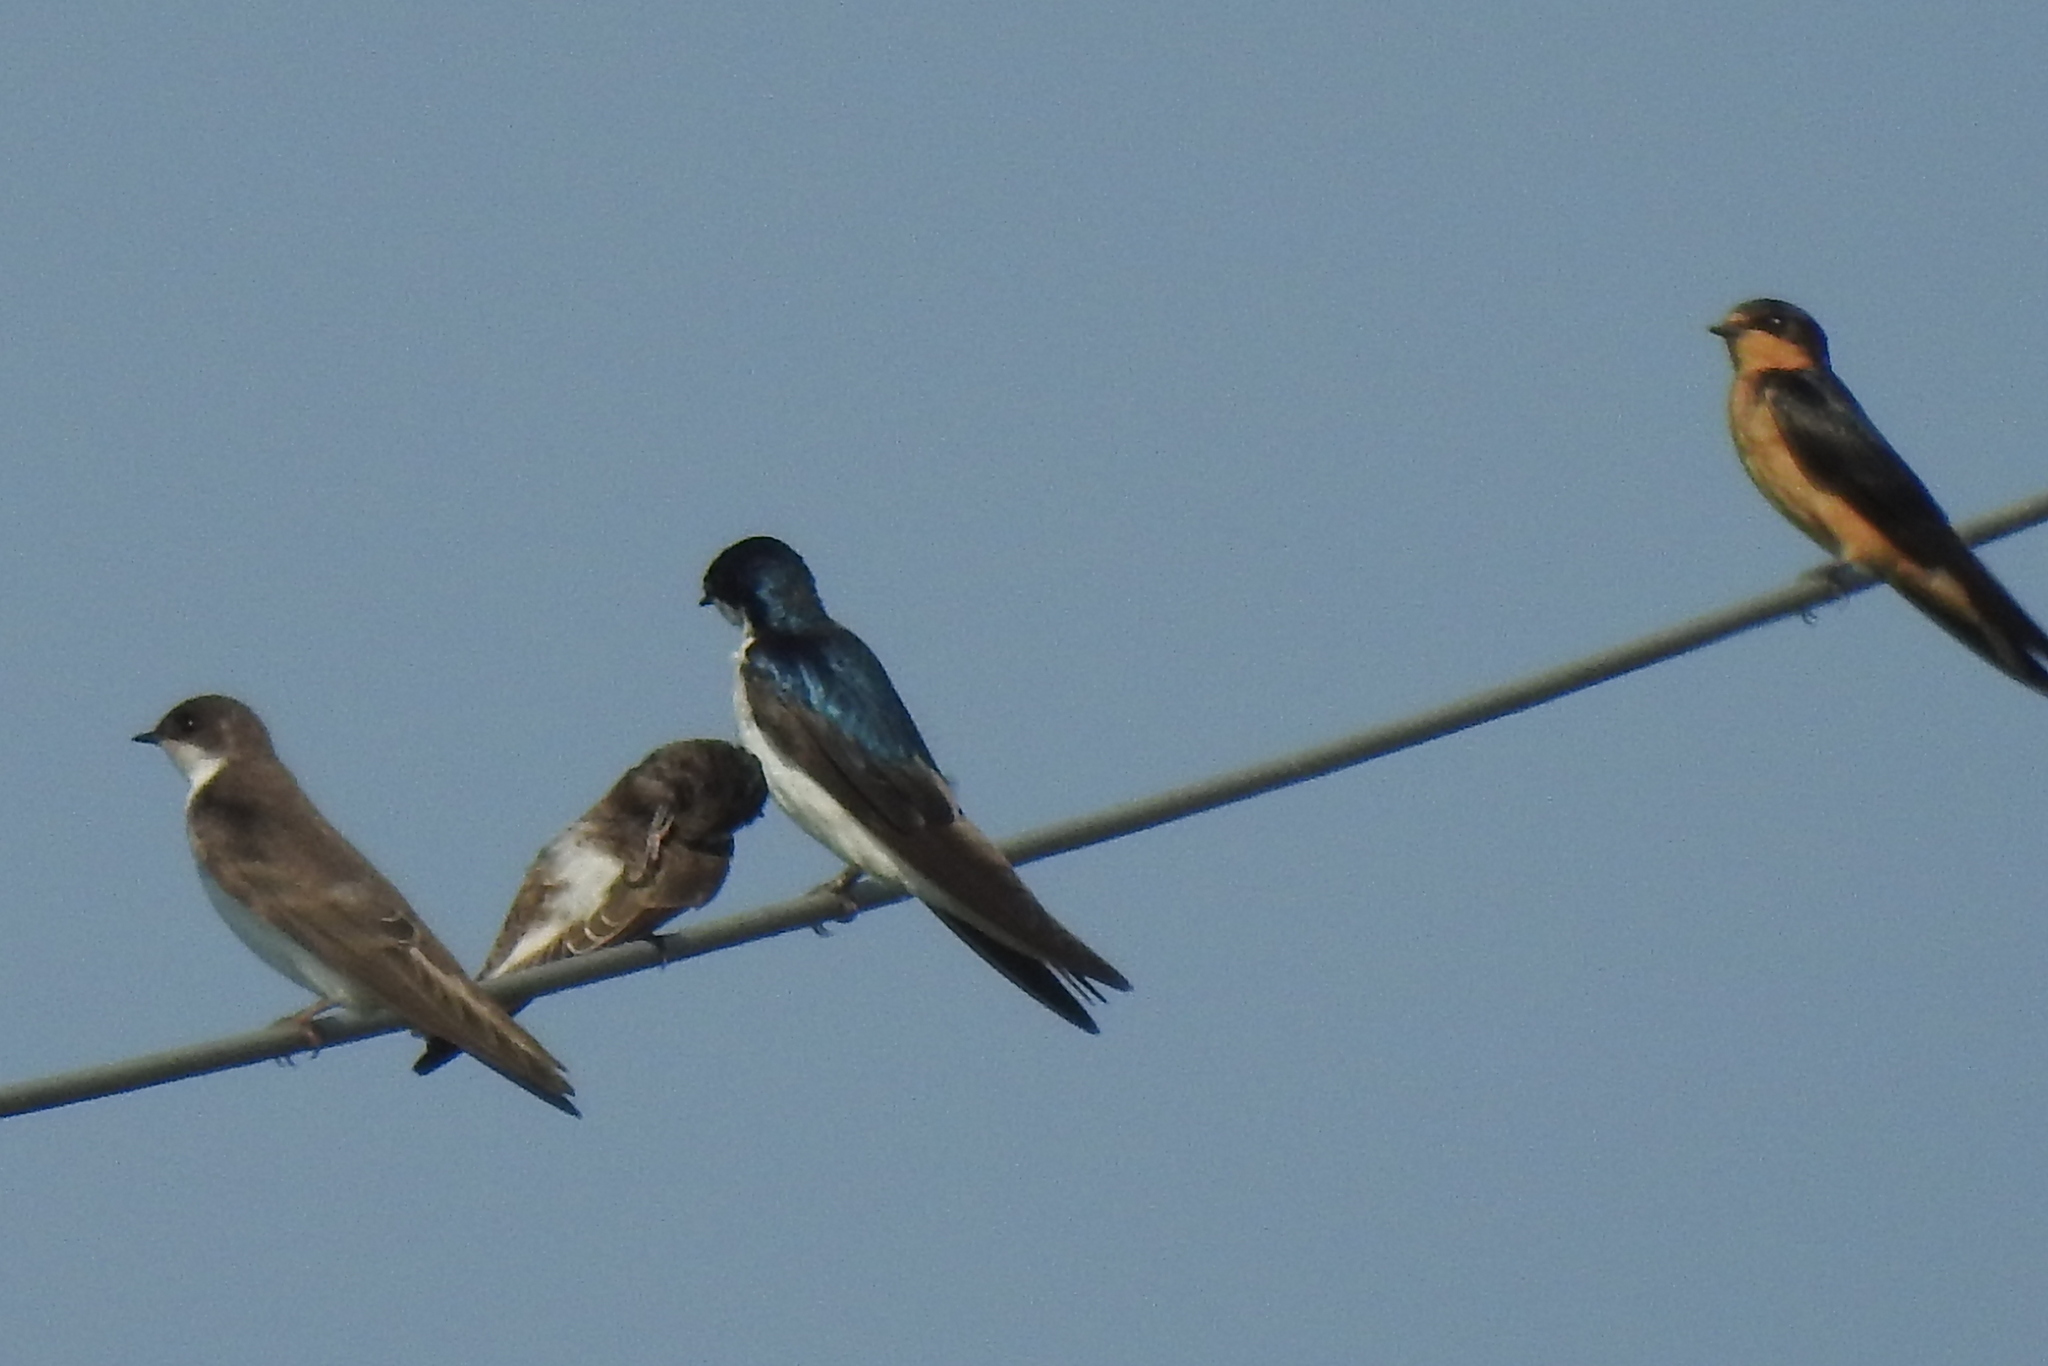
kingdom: Animalia
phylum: Chordata
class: Aves
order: Passeriformes
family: Hirundinidae
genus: Tachycineta
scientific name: Tachycineta bicolor
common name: Tree swallow
